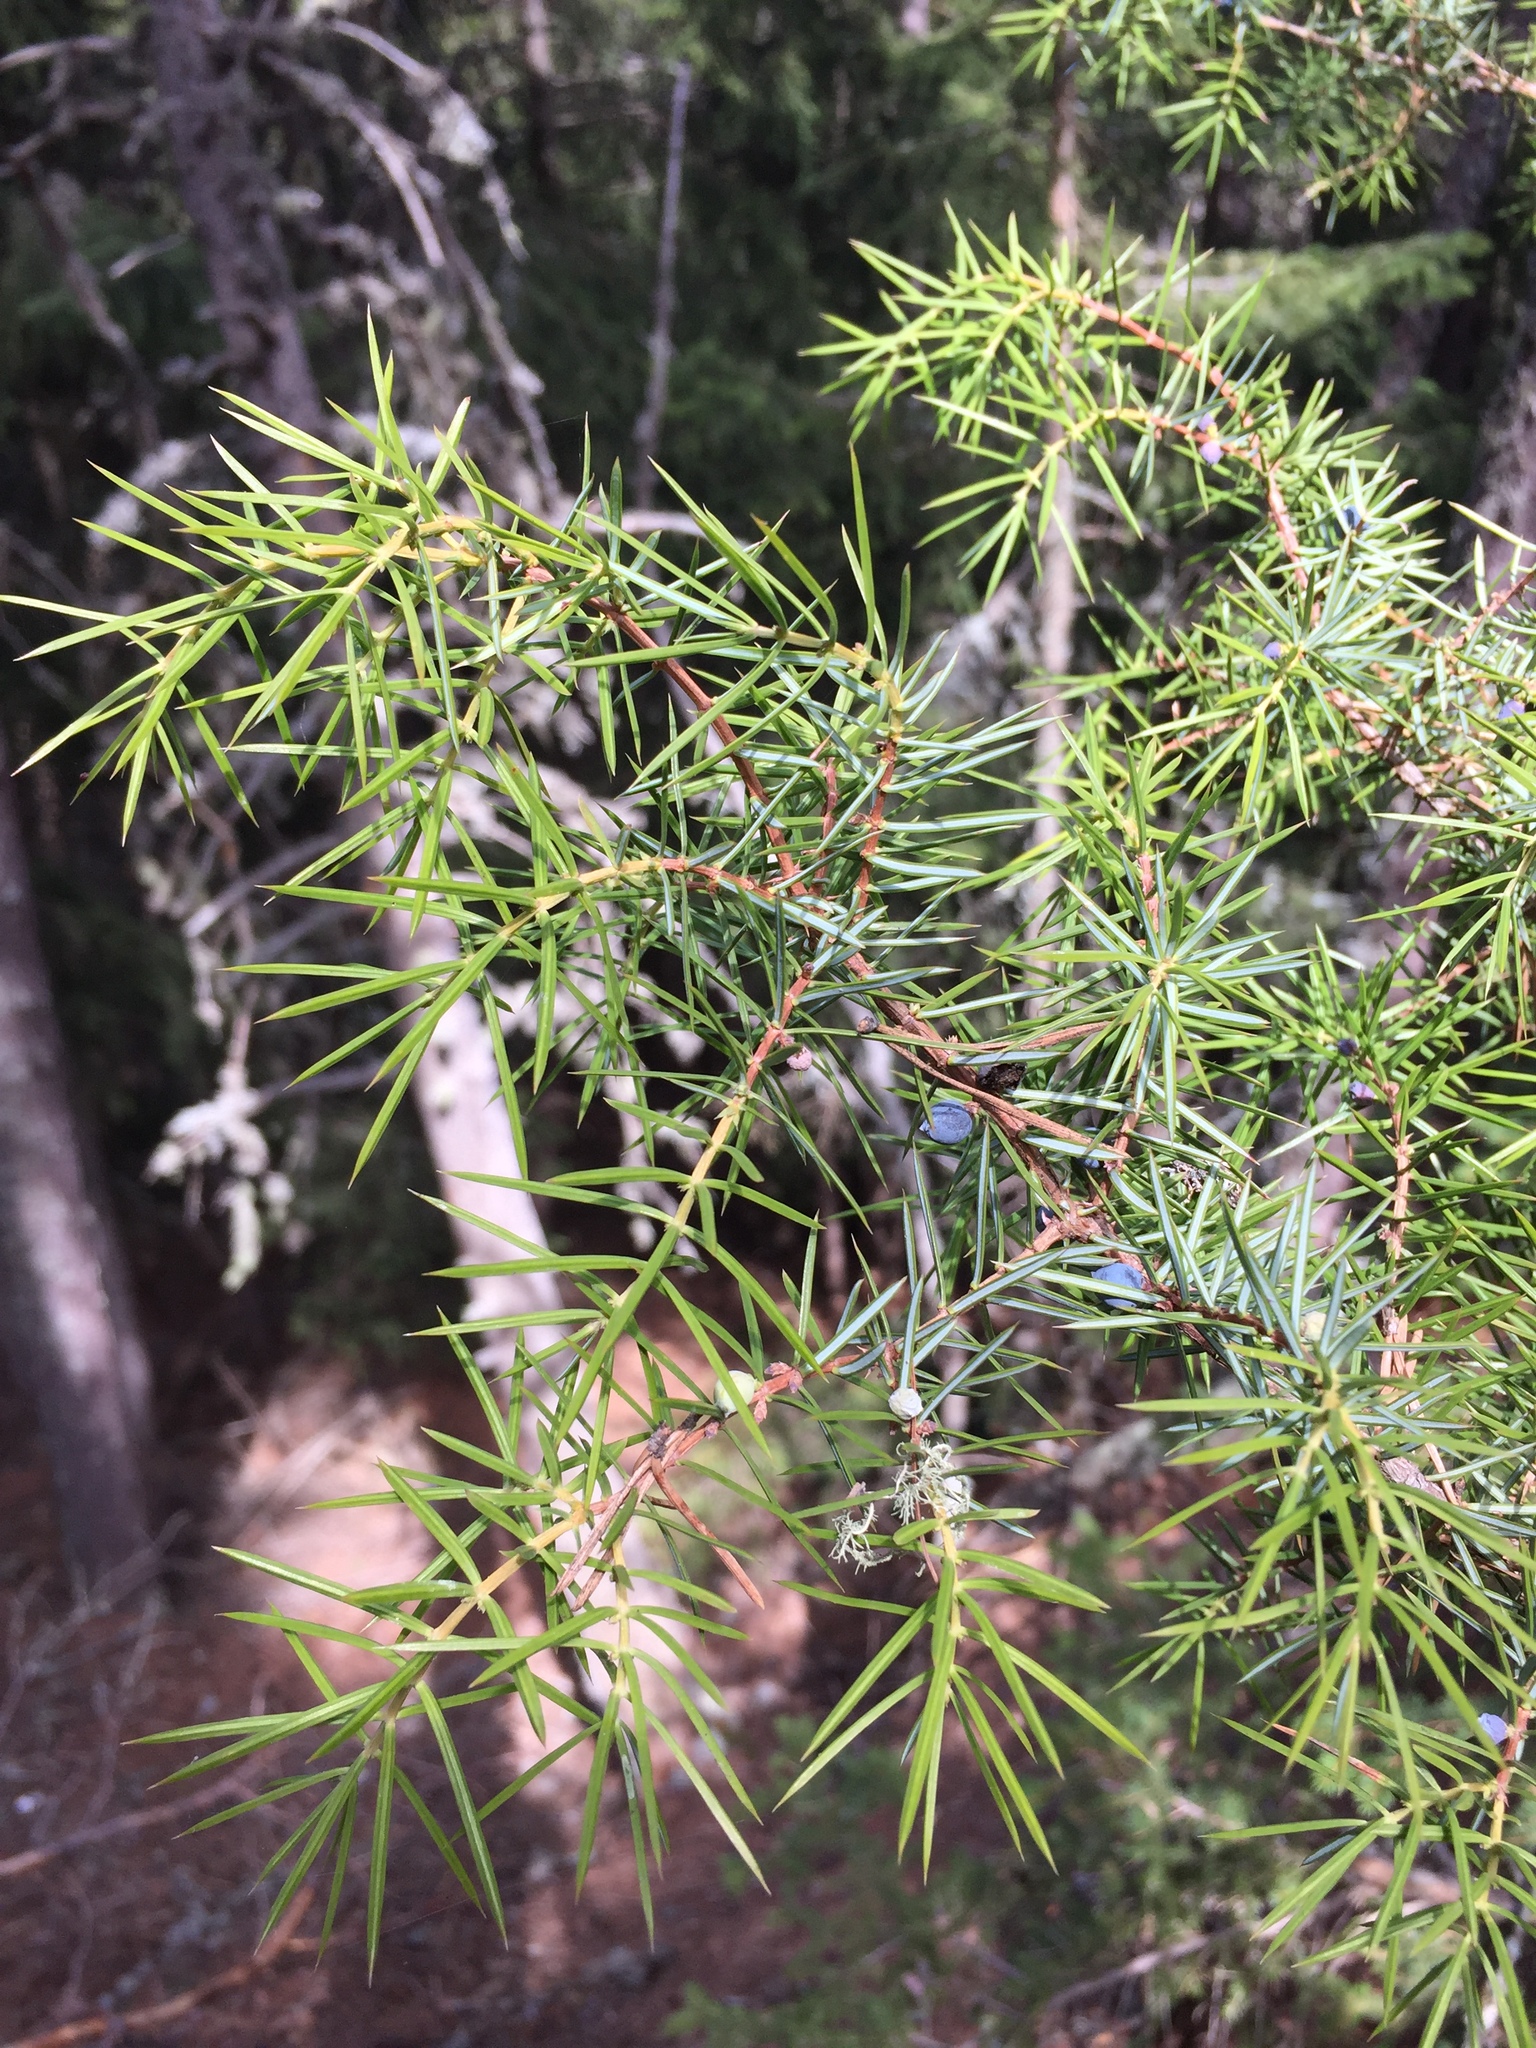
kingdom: Plantae
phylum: Tracheophyta
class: Pinopsida
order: Pinales
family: Cupressaceae
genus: Juniperus
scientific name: Juniperus communis
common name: Common juniper
